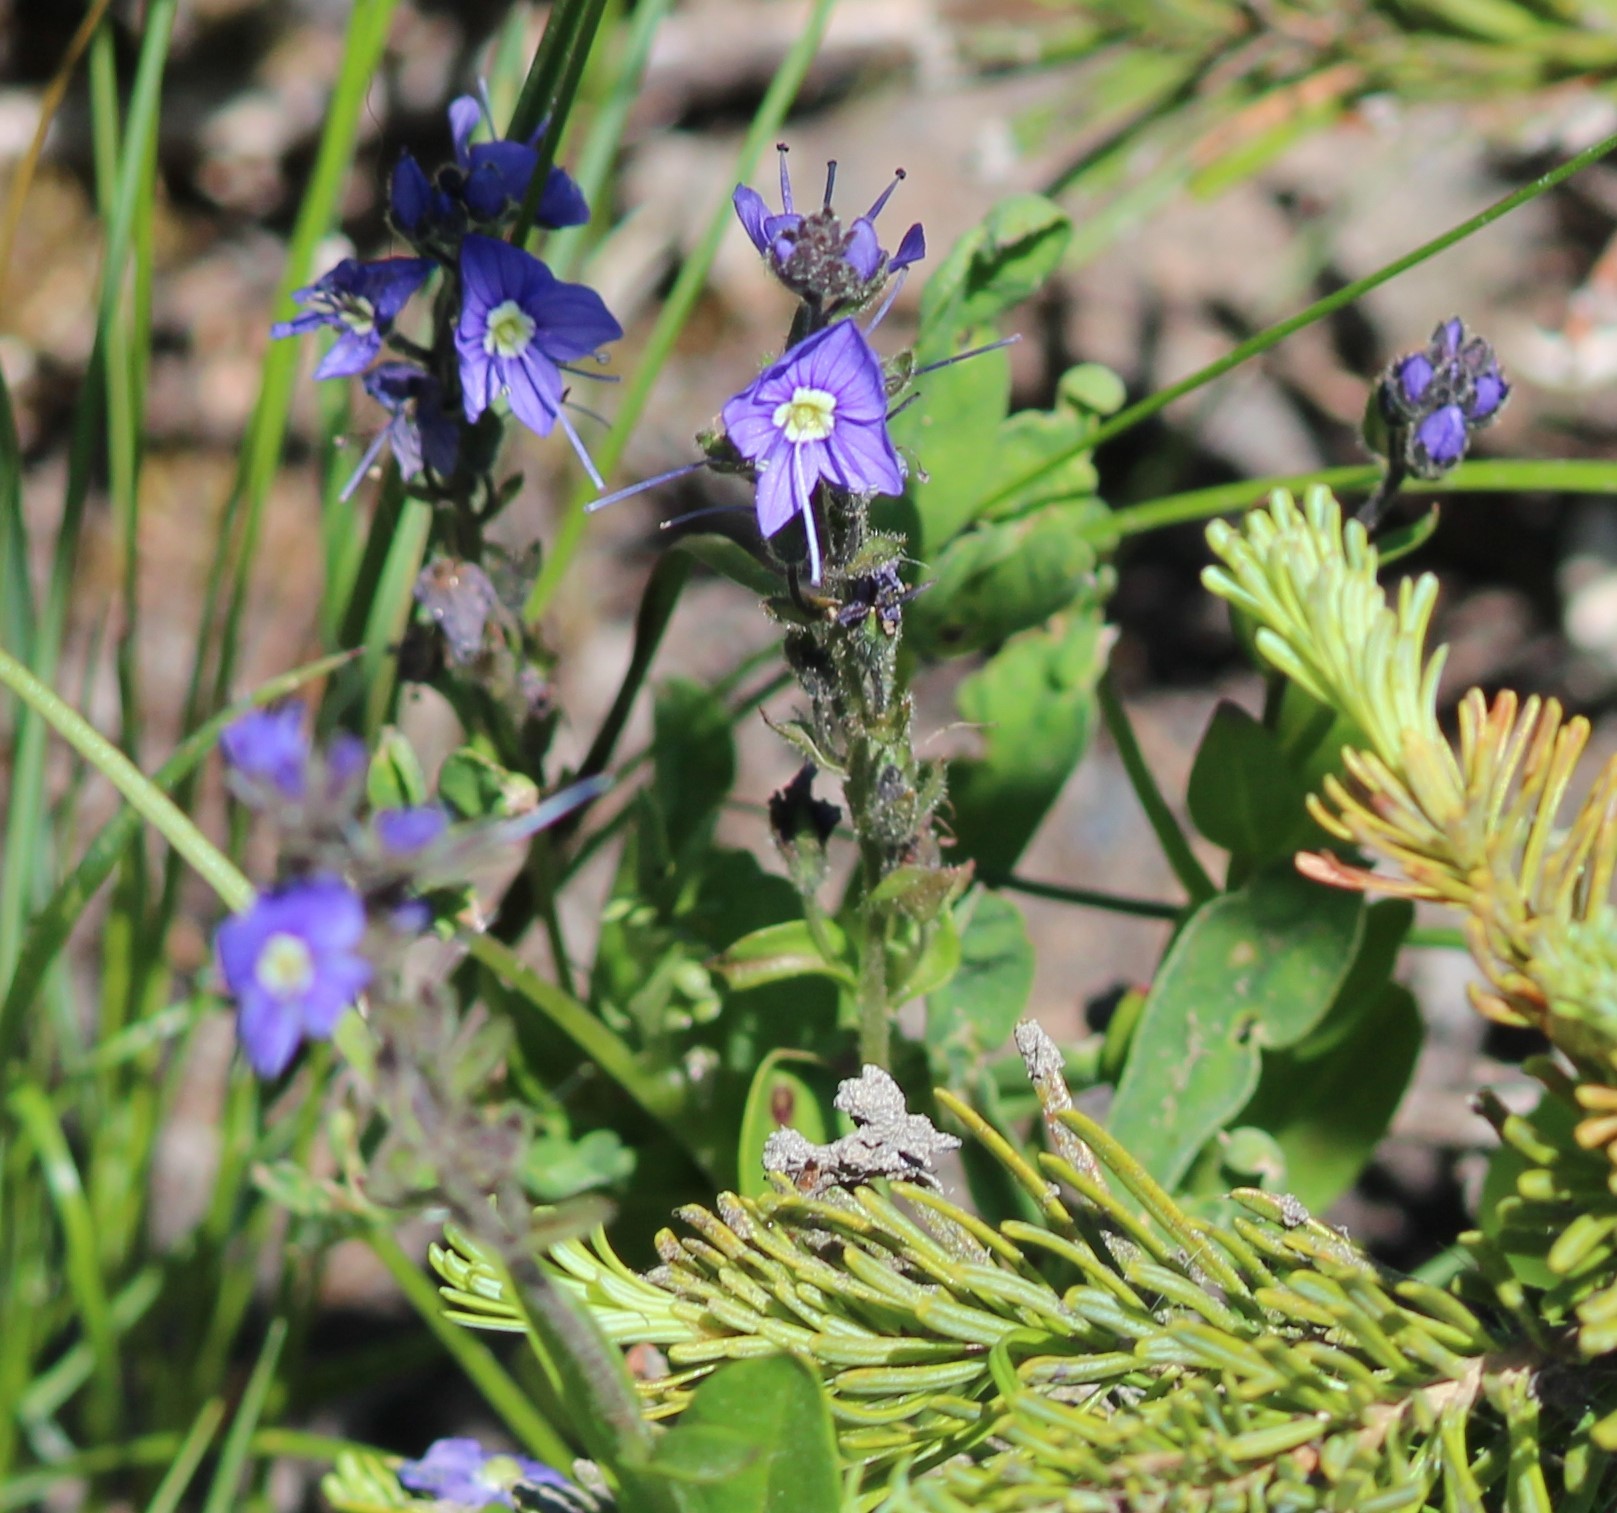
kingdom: Plantae
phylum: Tracheophyta
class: Magnoliopsida
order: Lamiales
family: Plantaginaceae
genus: Veronica
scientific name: Veronica cusickii
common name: Cusick's speedwell
